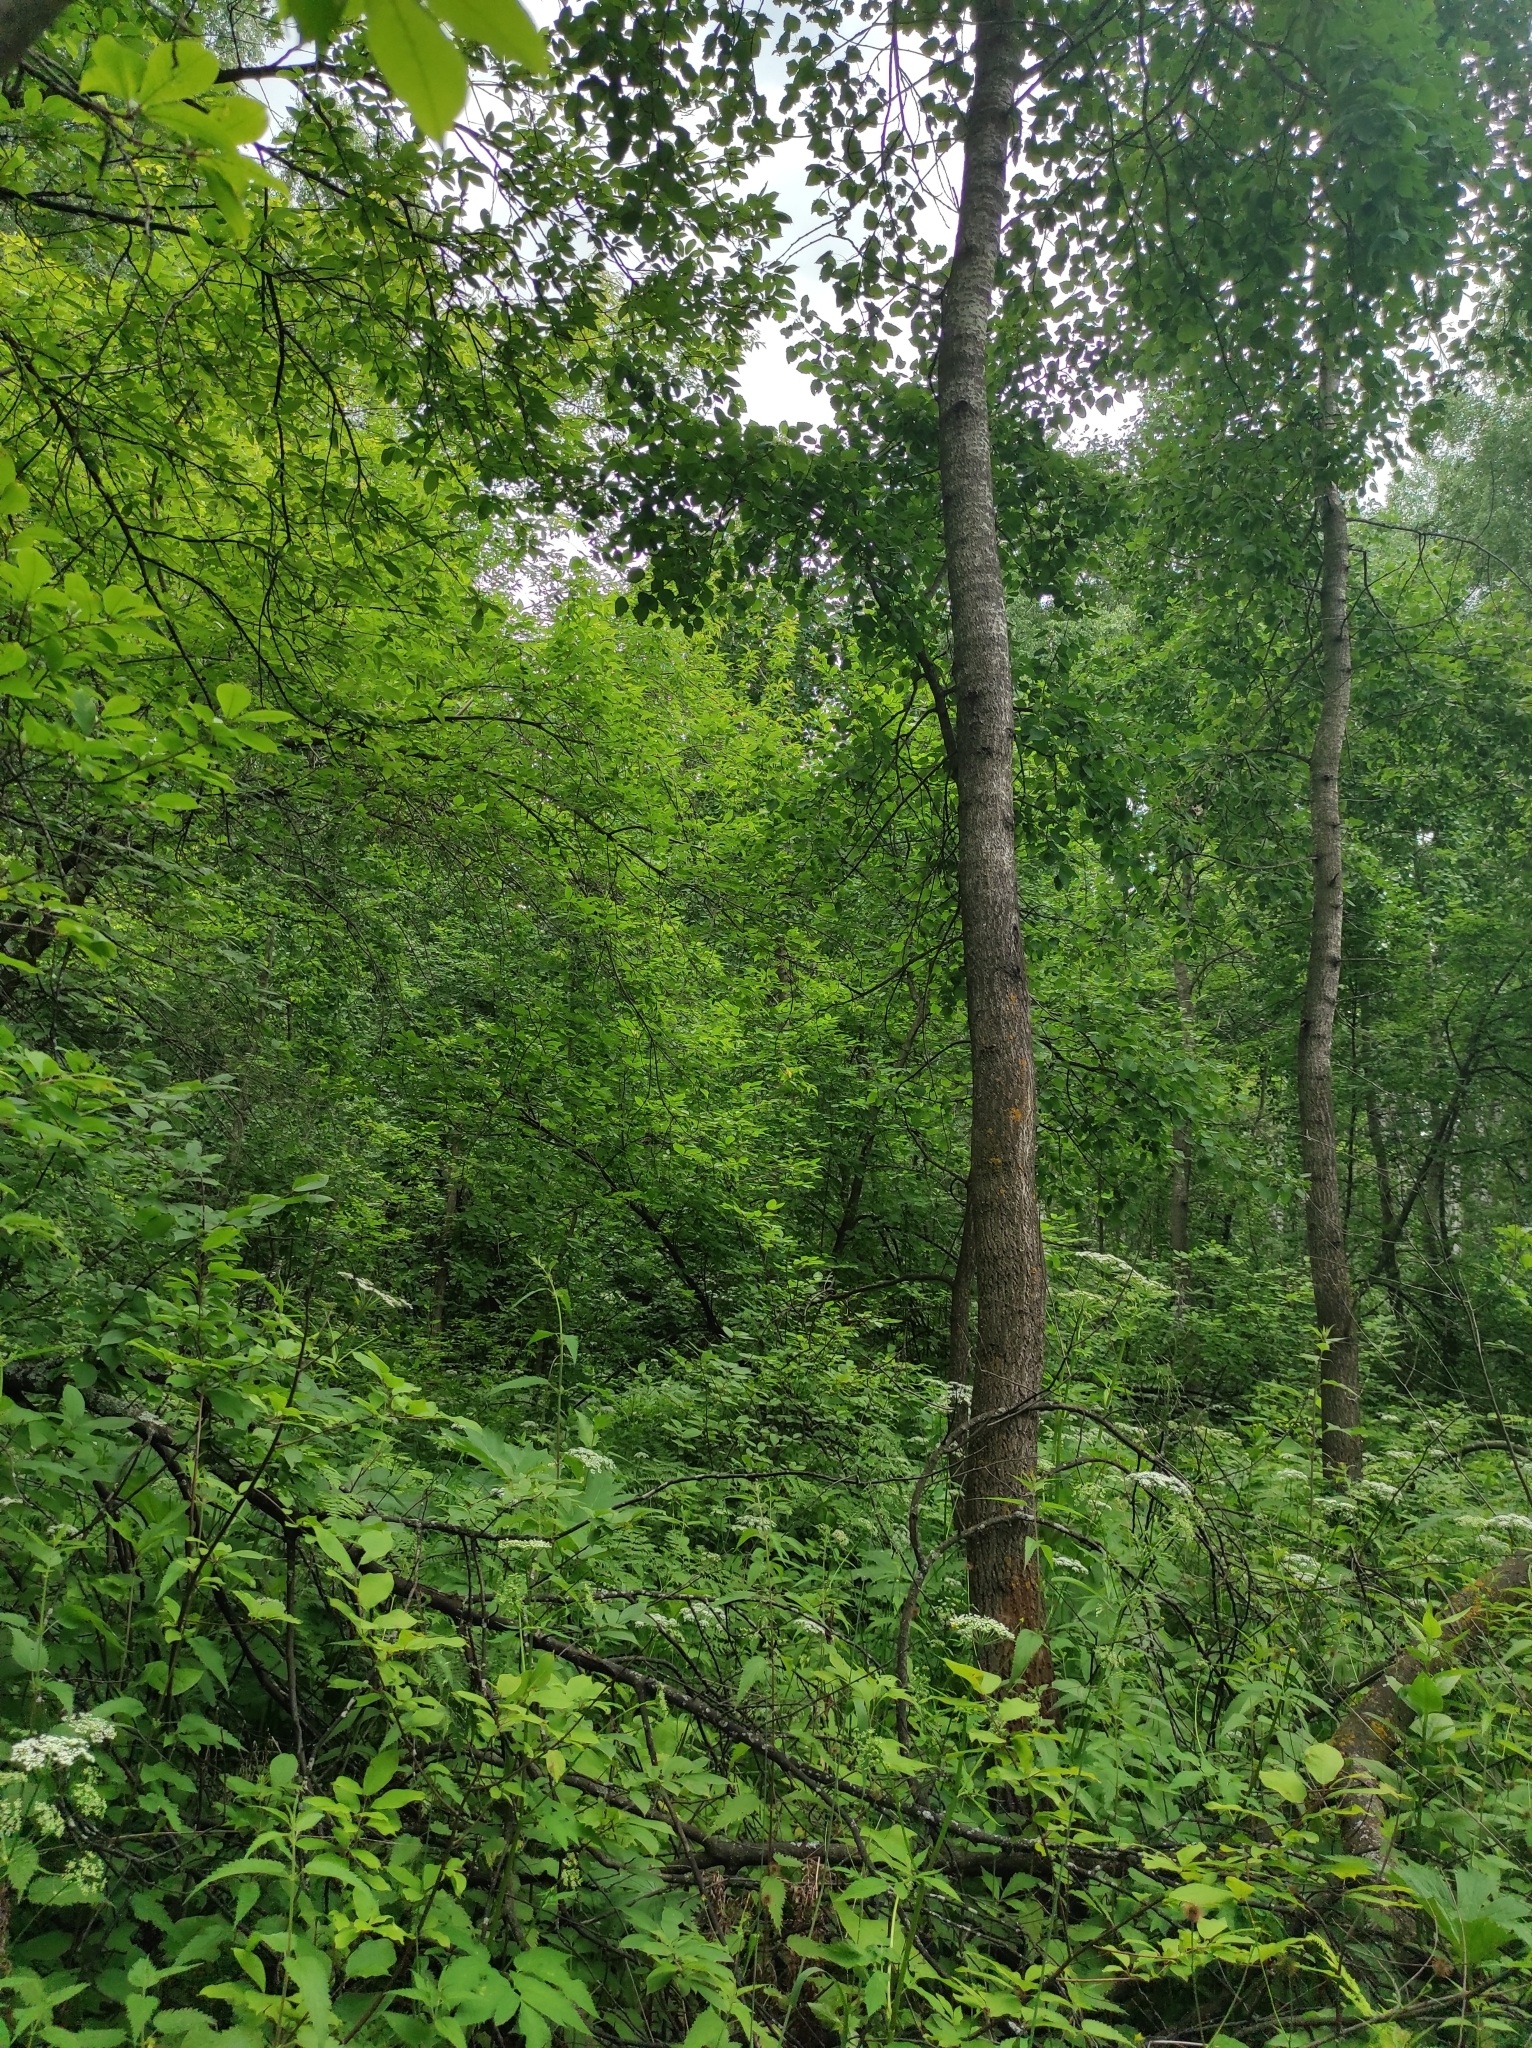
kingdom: Plantae
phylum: Tracheophyta
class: Magnoliopsida
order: Malpighiales
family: Salicaceae
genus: Populus
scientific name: Populus tremula
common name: European aspen
